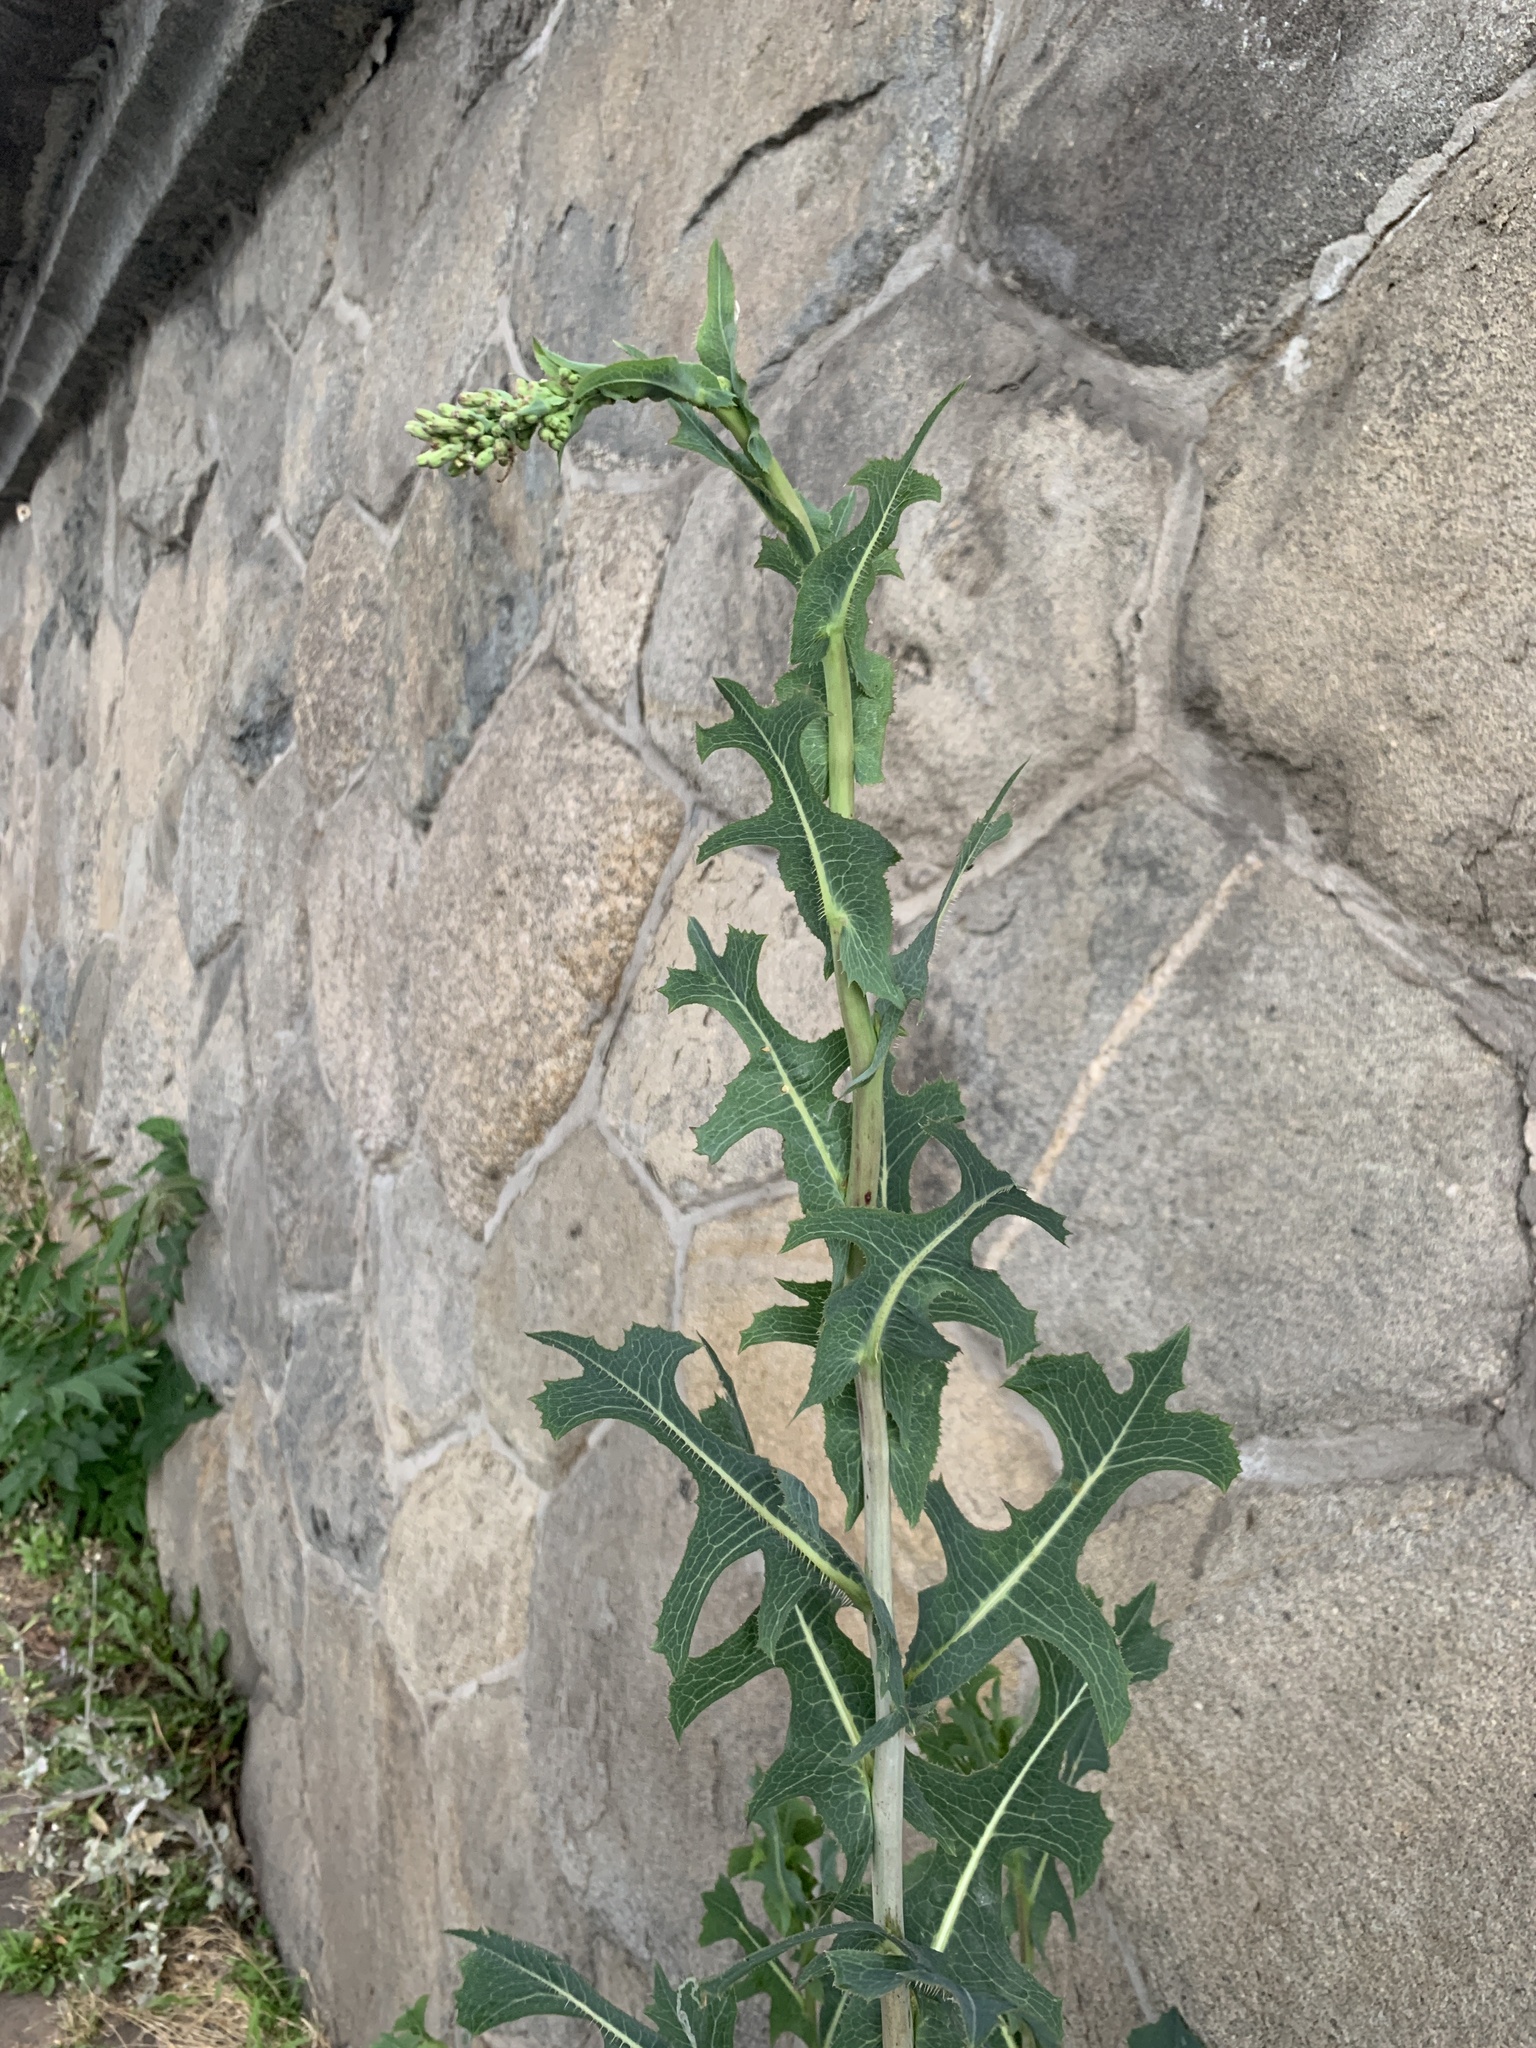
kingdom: Plantae
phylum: Tracheophyta
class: Magnoliopsida
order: Asterales
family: Asteraceae
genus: Lactuca
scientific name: Lactuca serriola
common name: Prickly lettuce
